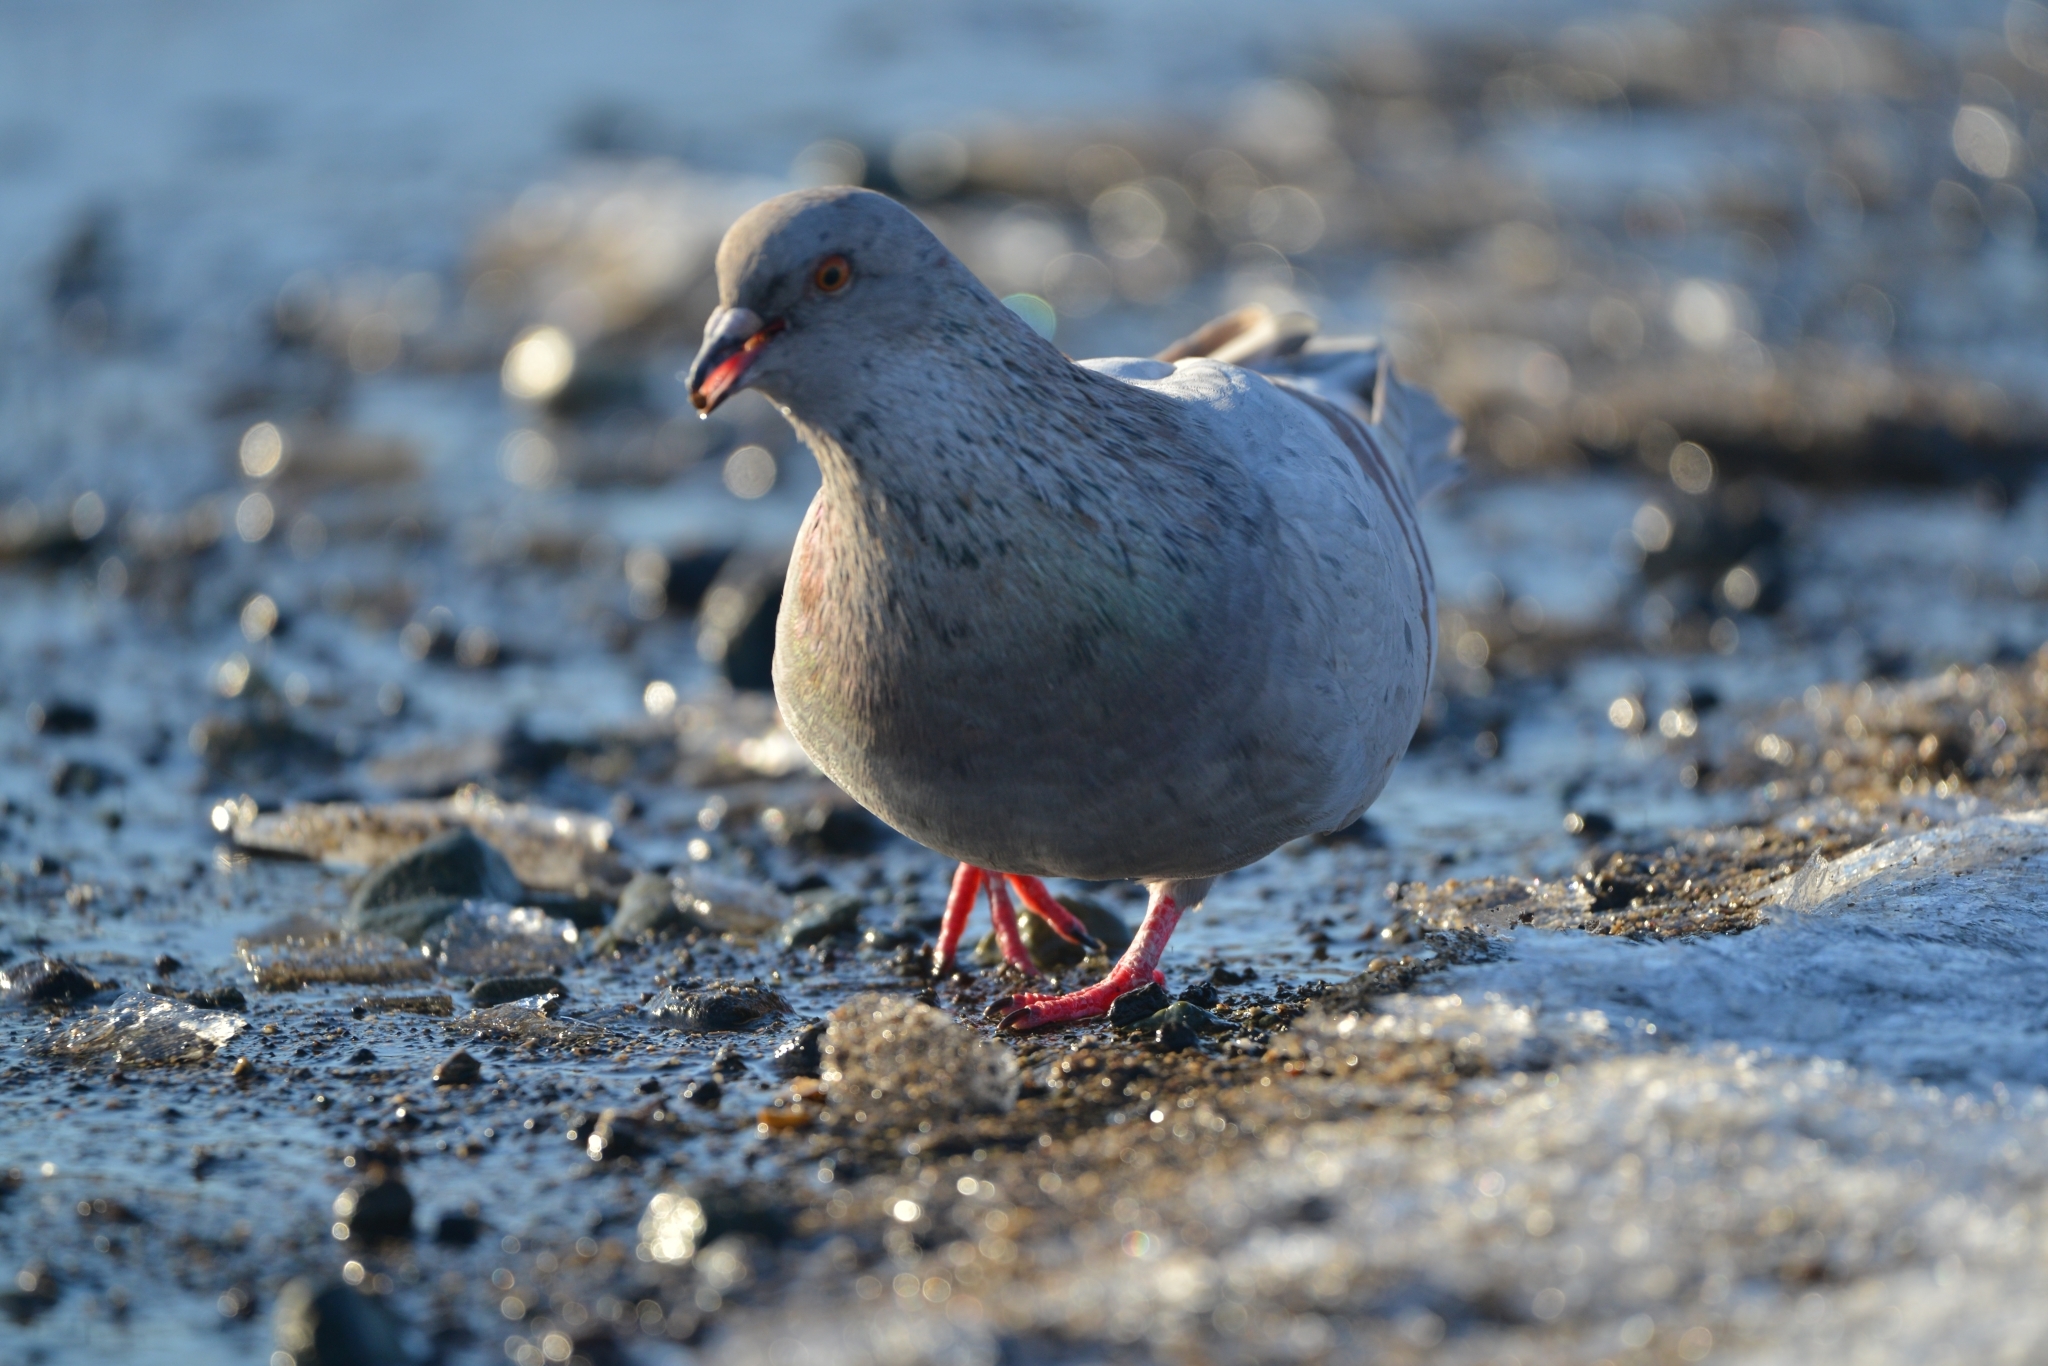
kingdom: Animalia
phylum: Chordata
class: Aves
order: Columbiformes
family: Columbidae
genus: Columba
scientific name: Columba livia
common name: Rock pigeon
